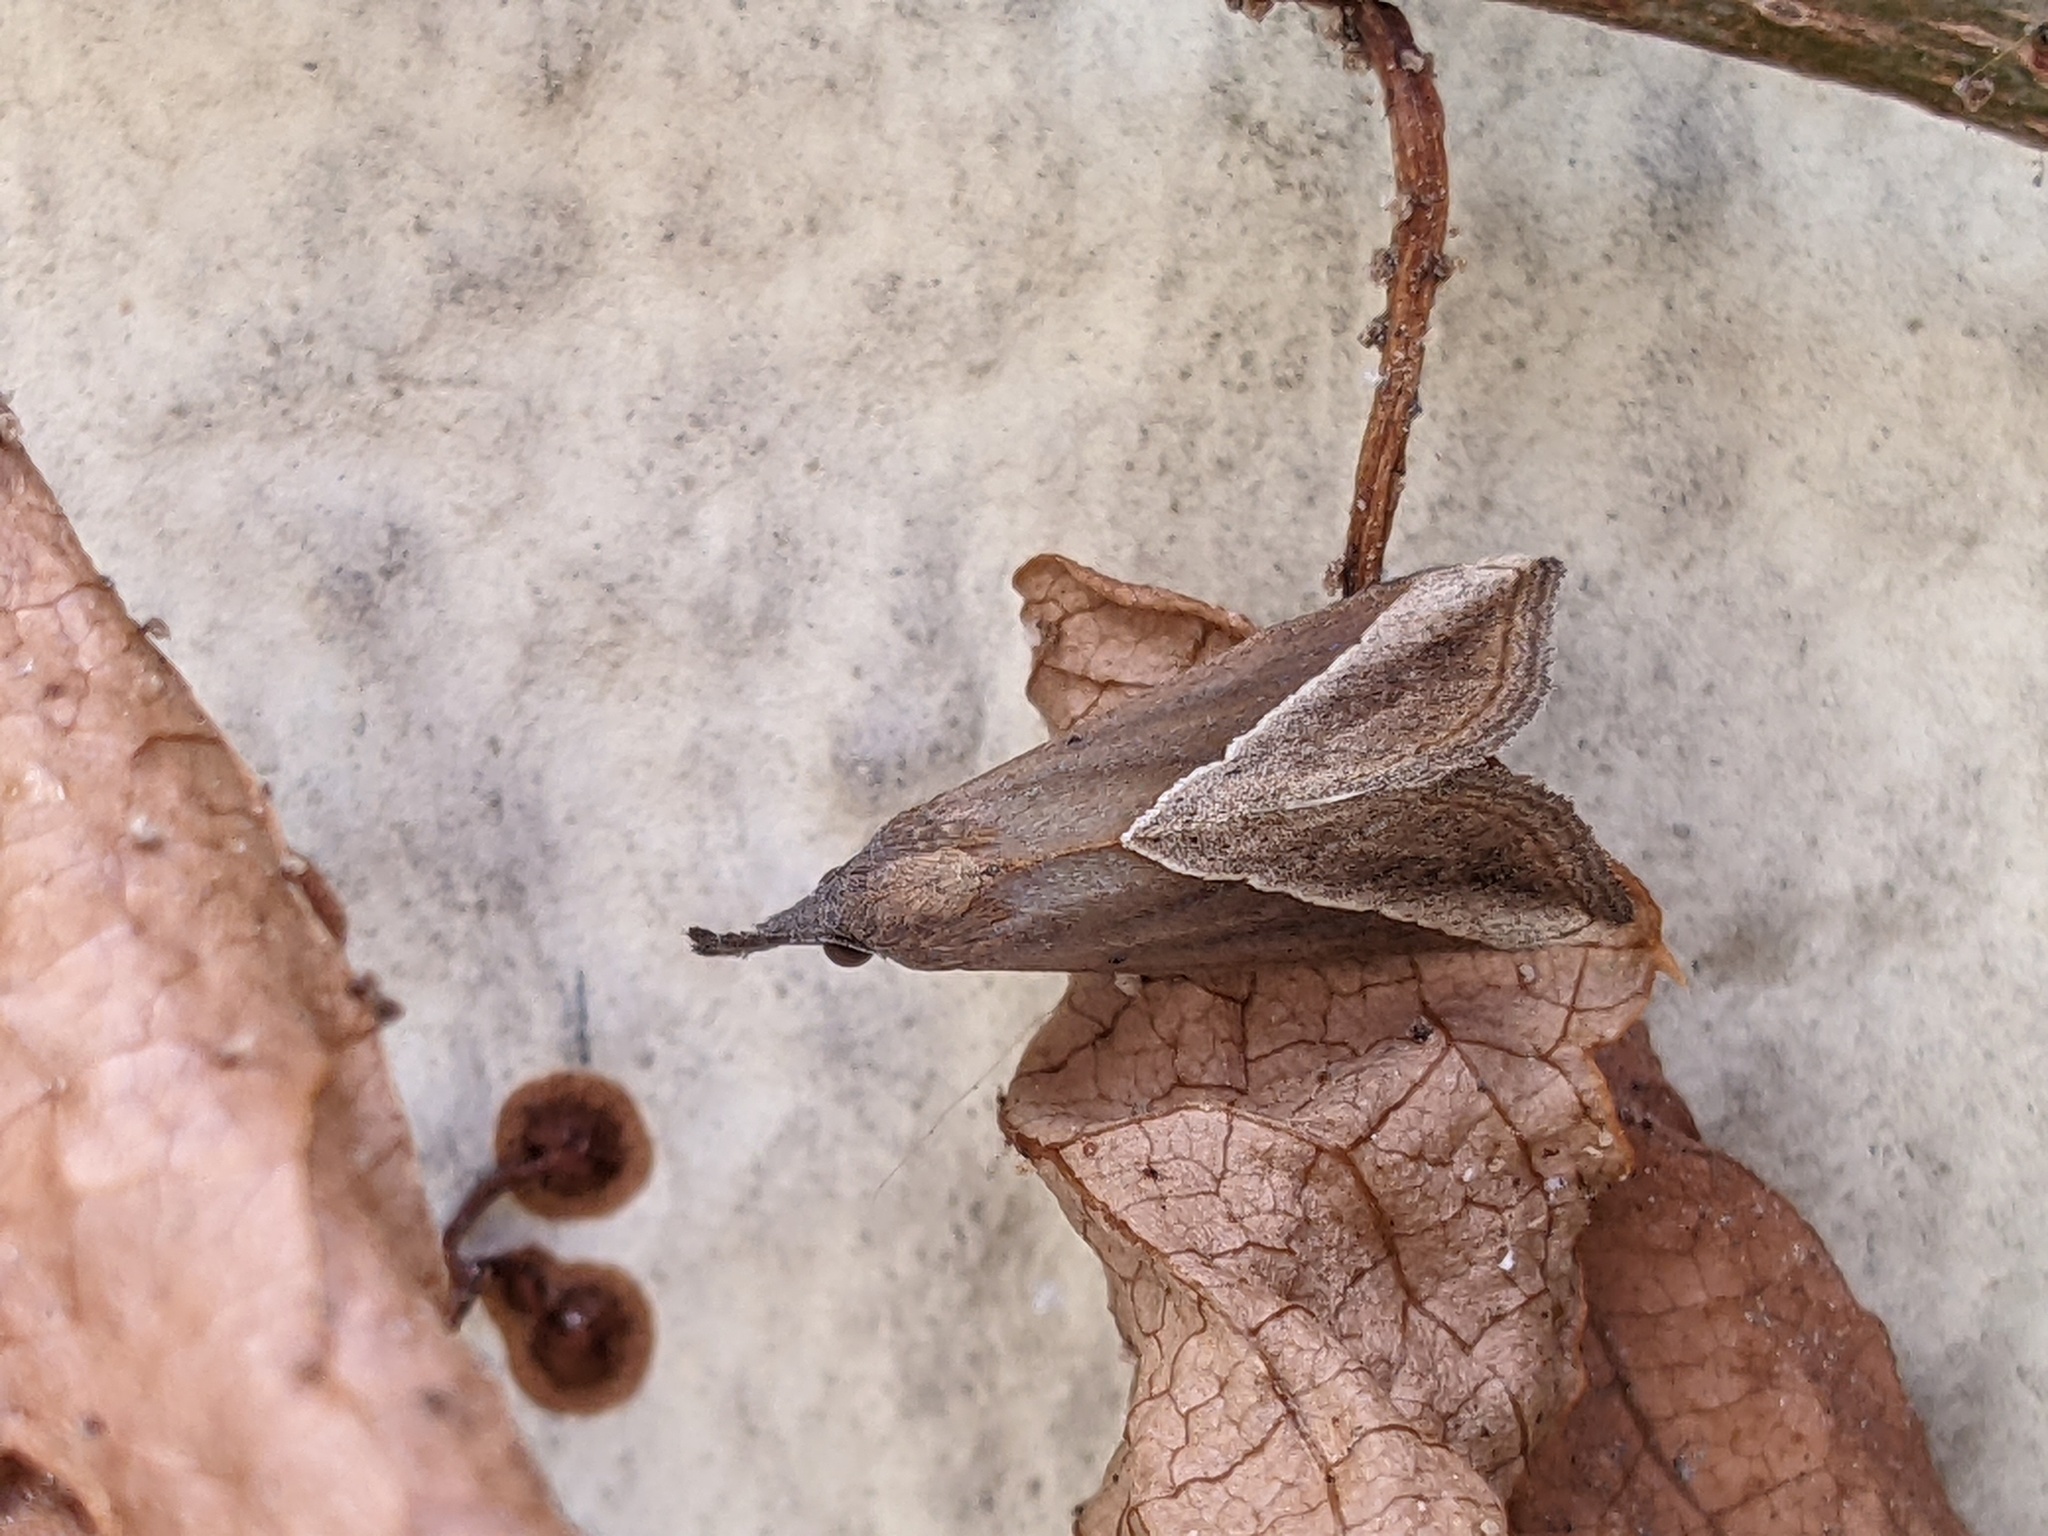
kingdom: Animalia
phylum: Arthropoda
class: Insecta
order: Lepidoptera
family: Erebidae
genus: Hypena
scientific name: Hypena lividalis
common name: Chevron snout
